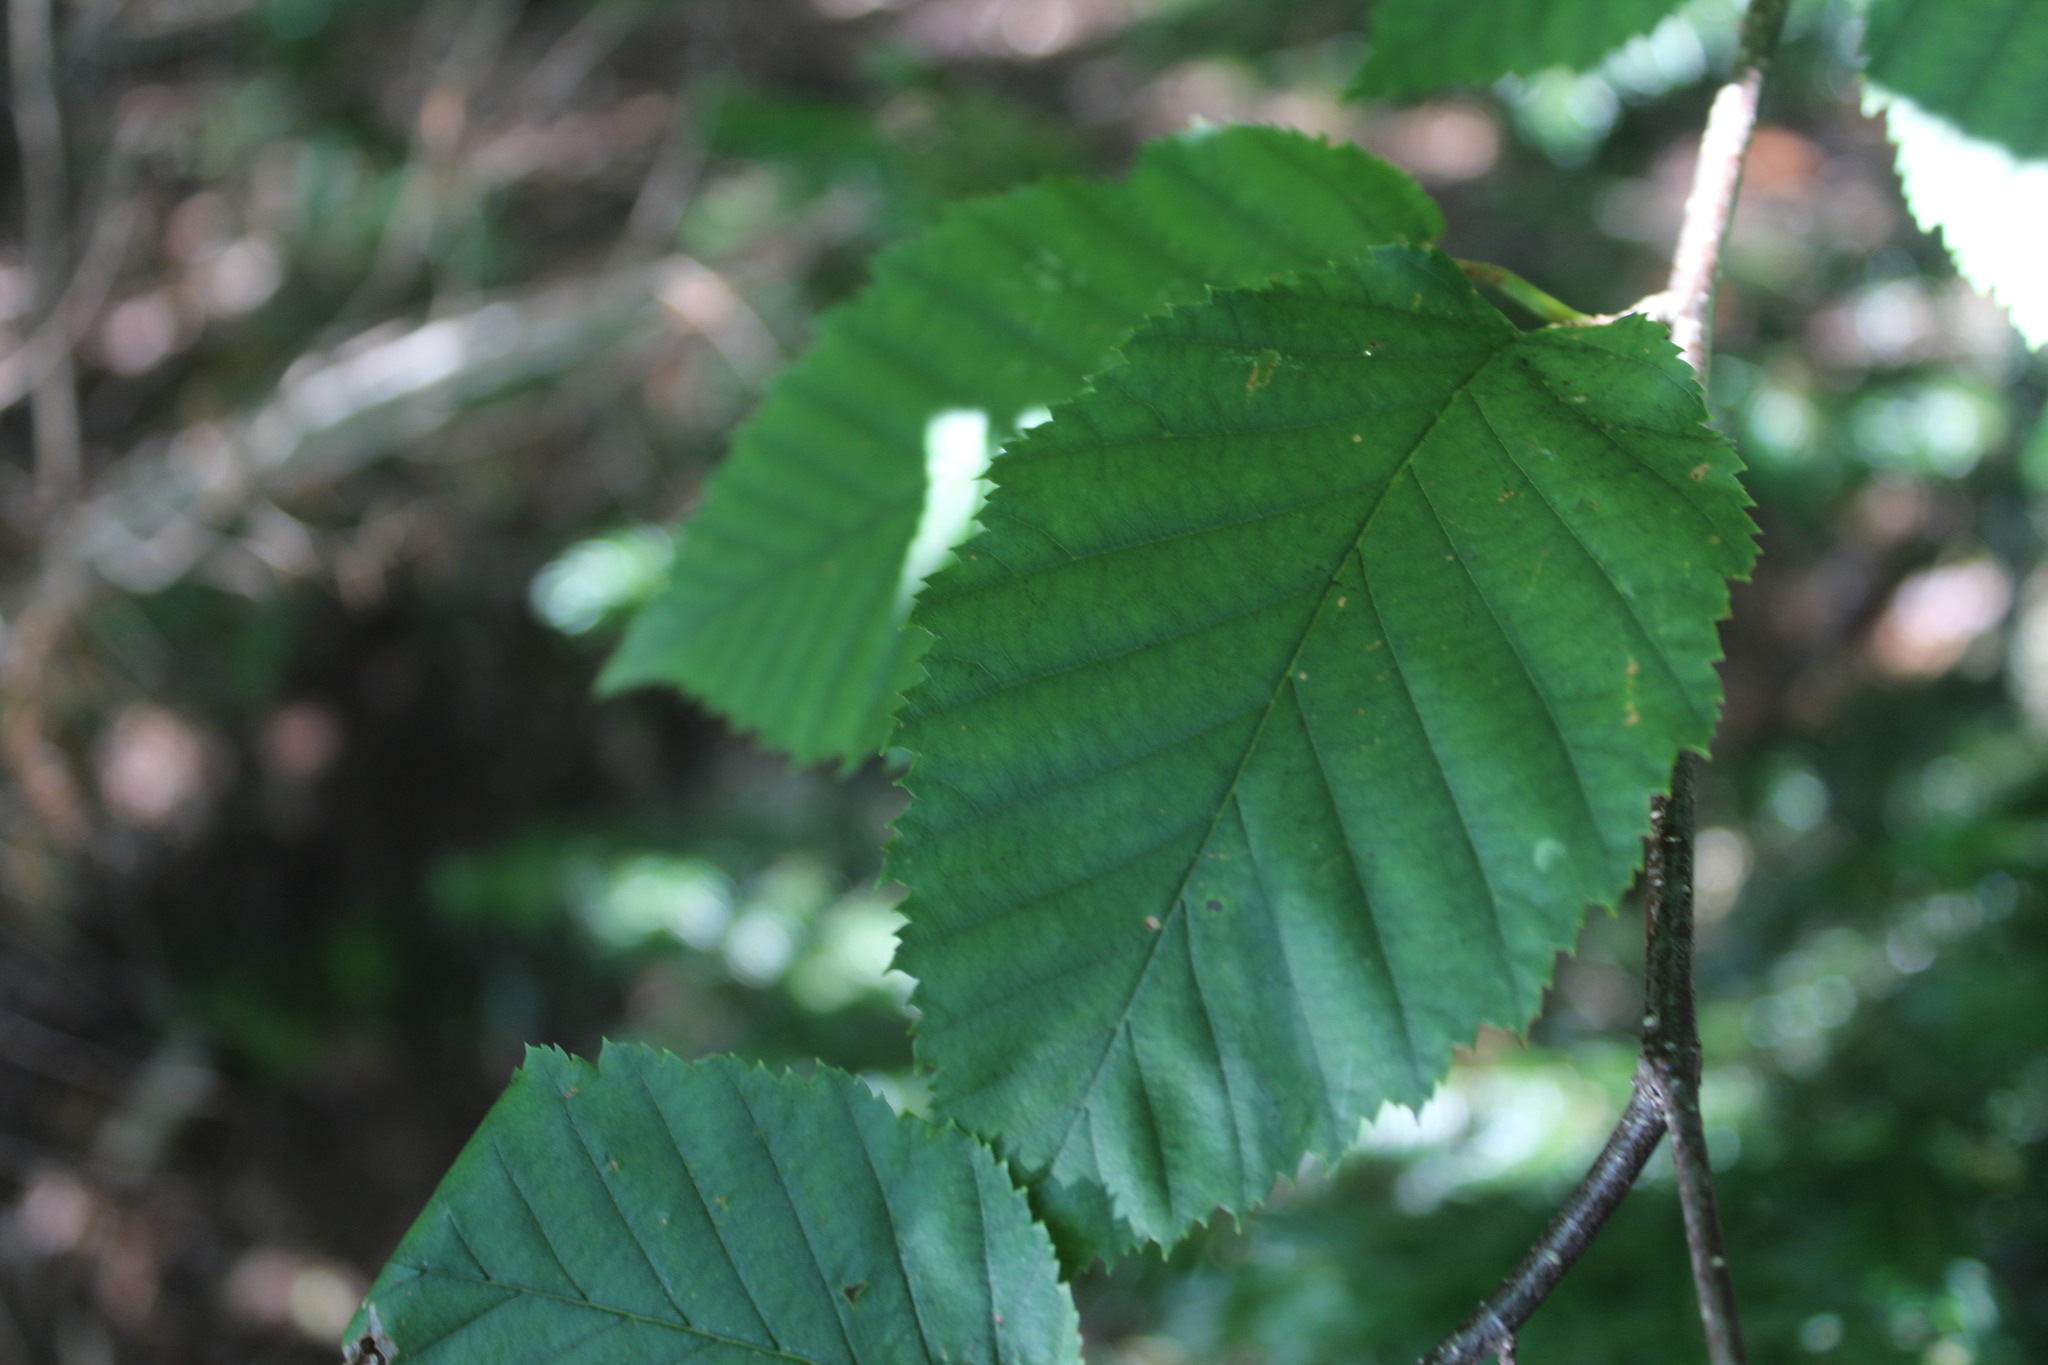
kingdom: Plantae
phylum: Tracheophyta
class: Magnoliopsida
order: Fagales
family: Betulaceae
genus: Betula
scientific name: Betula alleghaniensis
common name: Yellow birch
